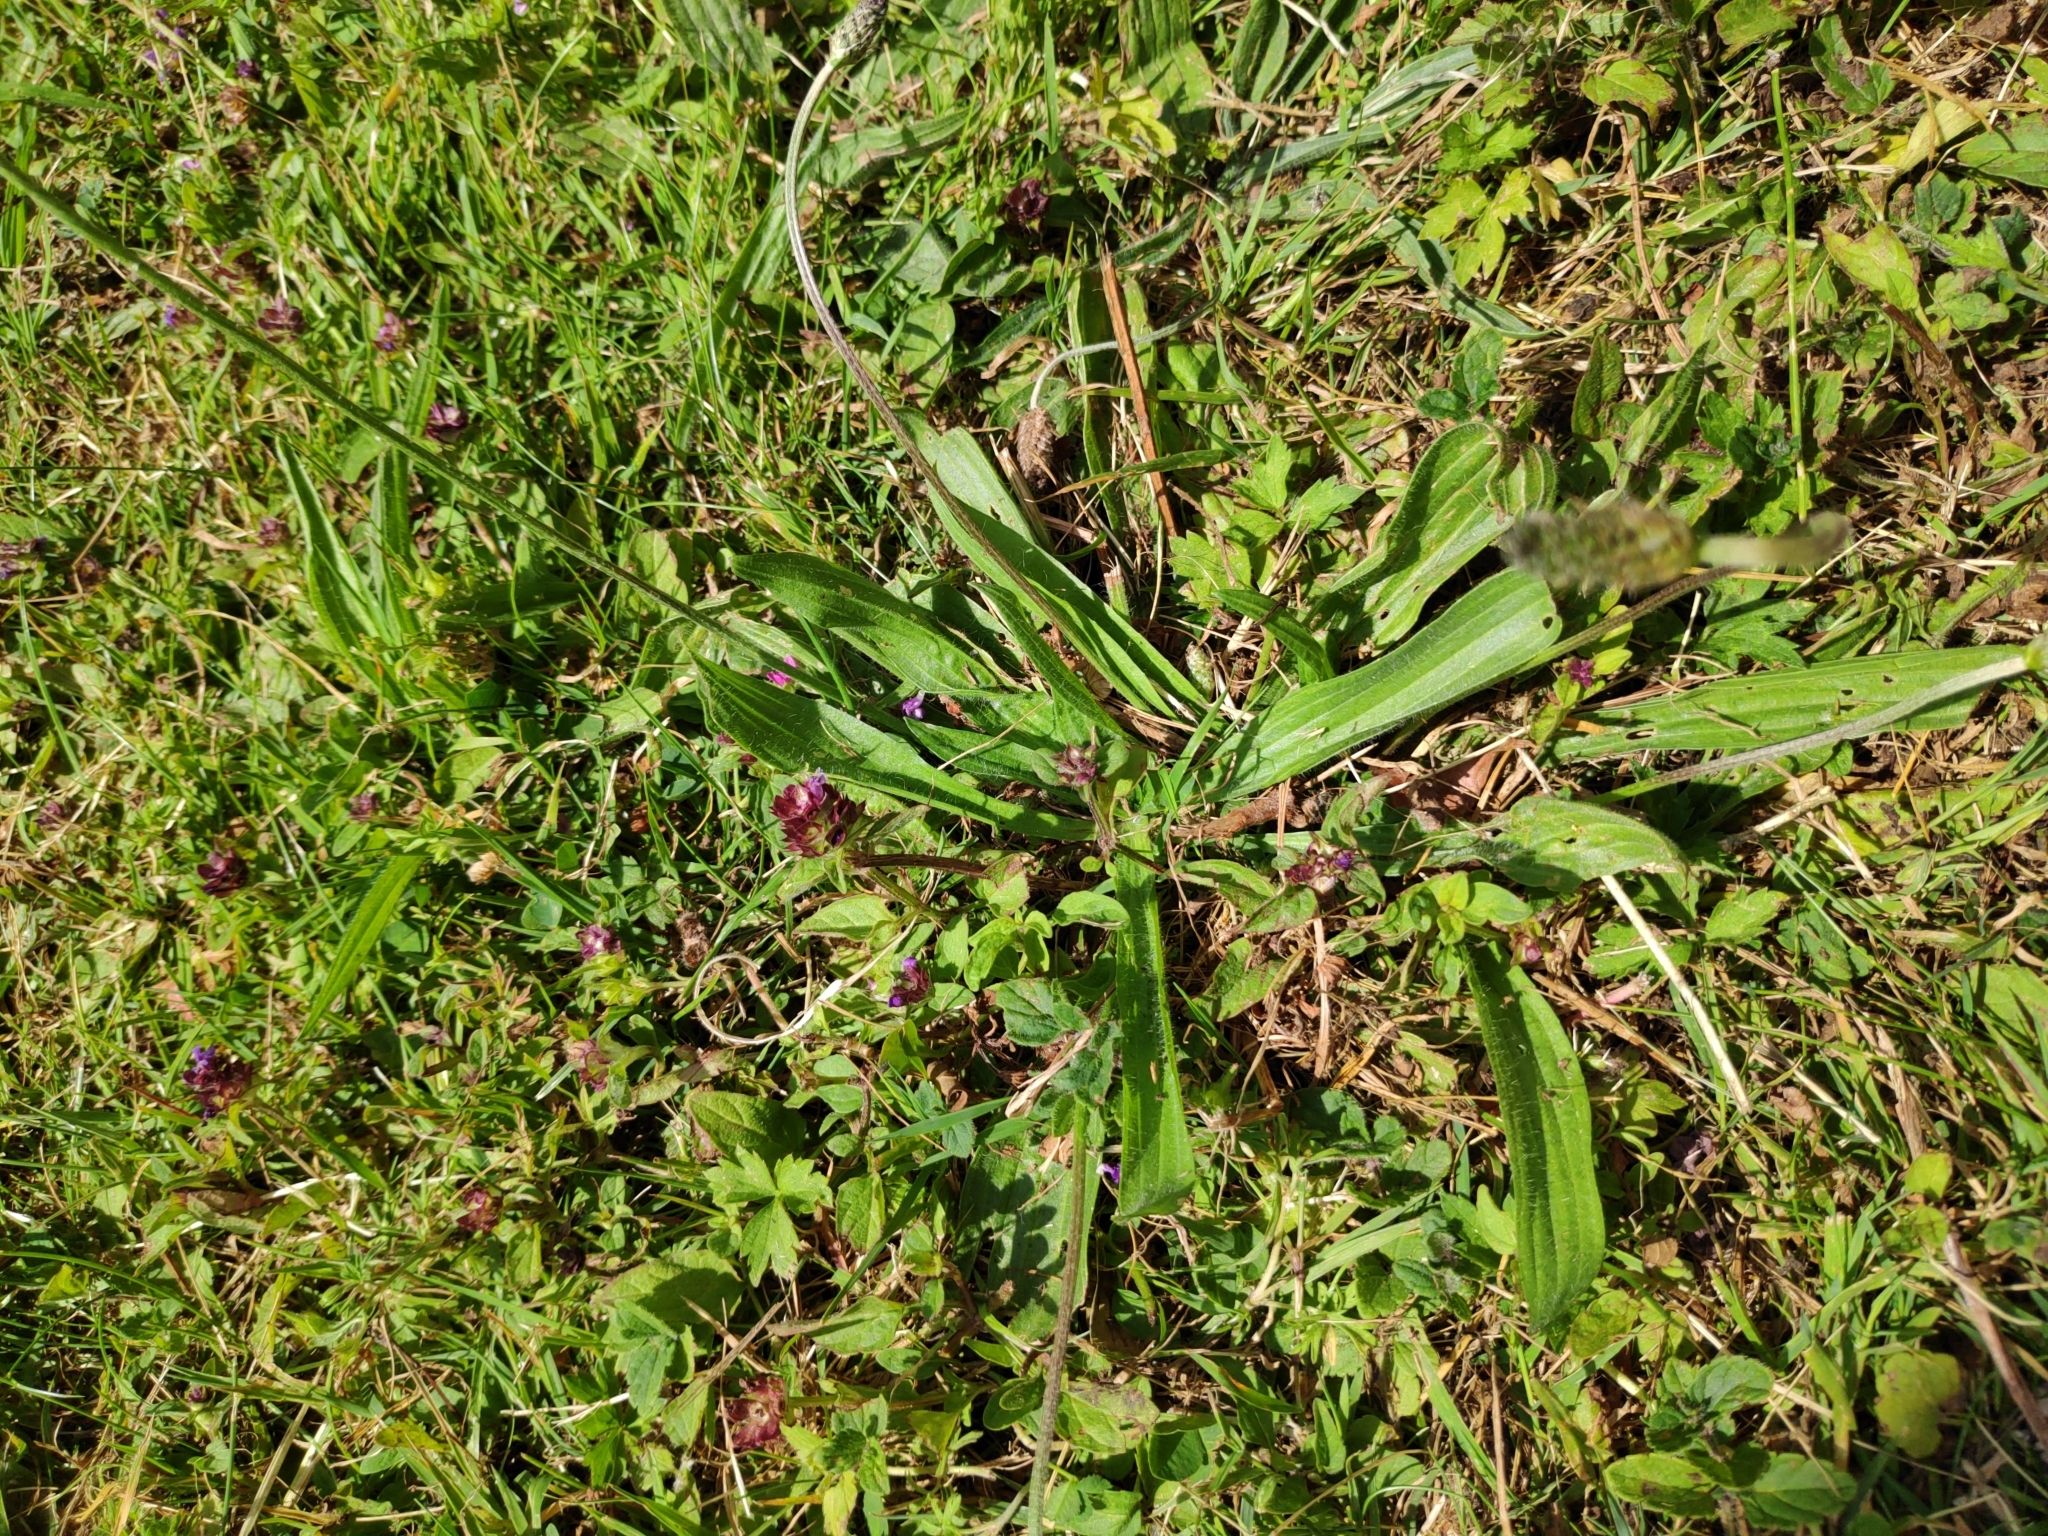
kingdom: Plantae
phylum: Tracheophyta
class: Magnoliopsida
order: Lamiales
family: Plantaginaceae
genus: Plantago
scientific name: Plantago lanceolata
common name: Ribwort plantain
